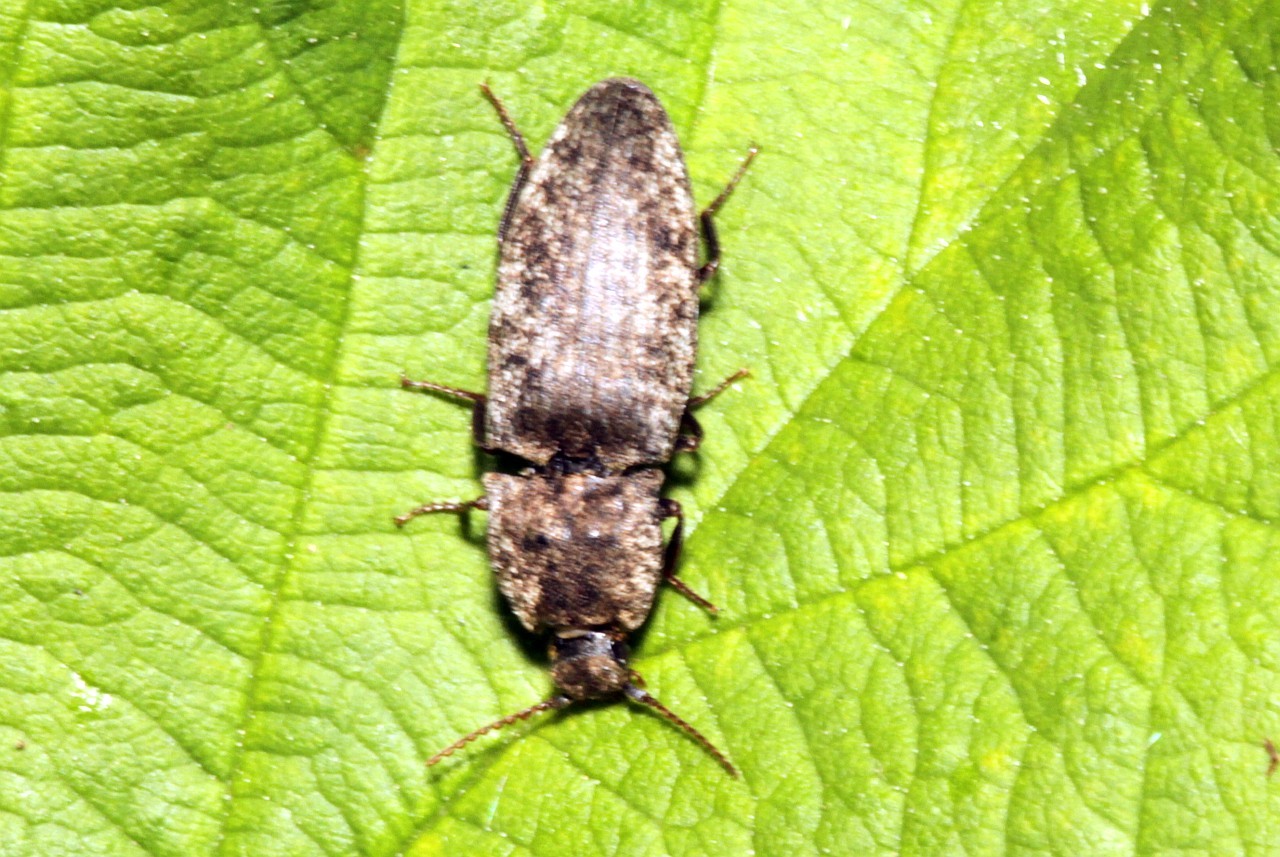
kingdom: Animalia
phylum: Arthropoda
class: Insecta
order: Coleoptera
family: Elateridae
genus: Agrypnus
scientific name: Agrypnus murinus
